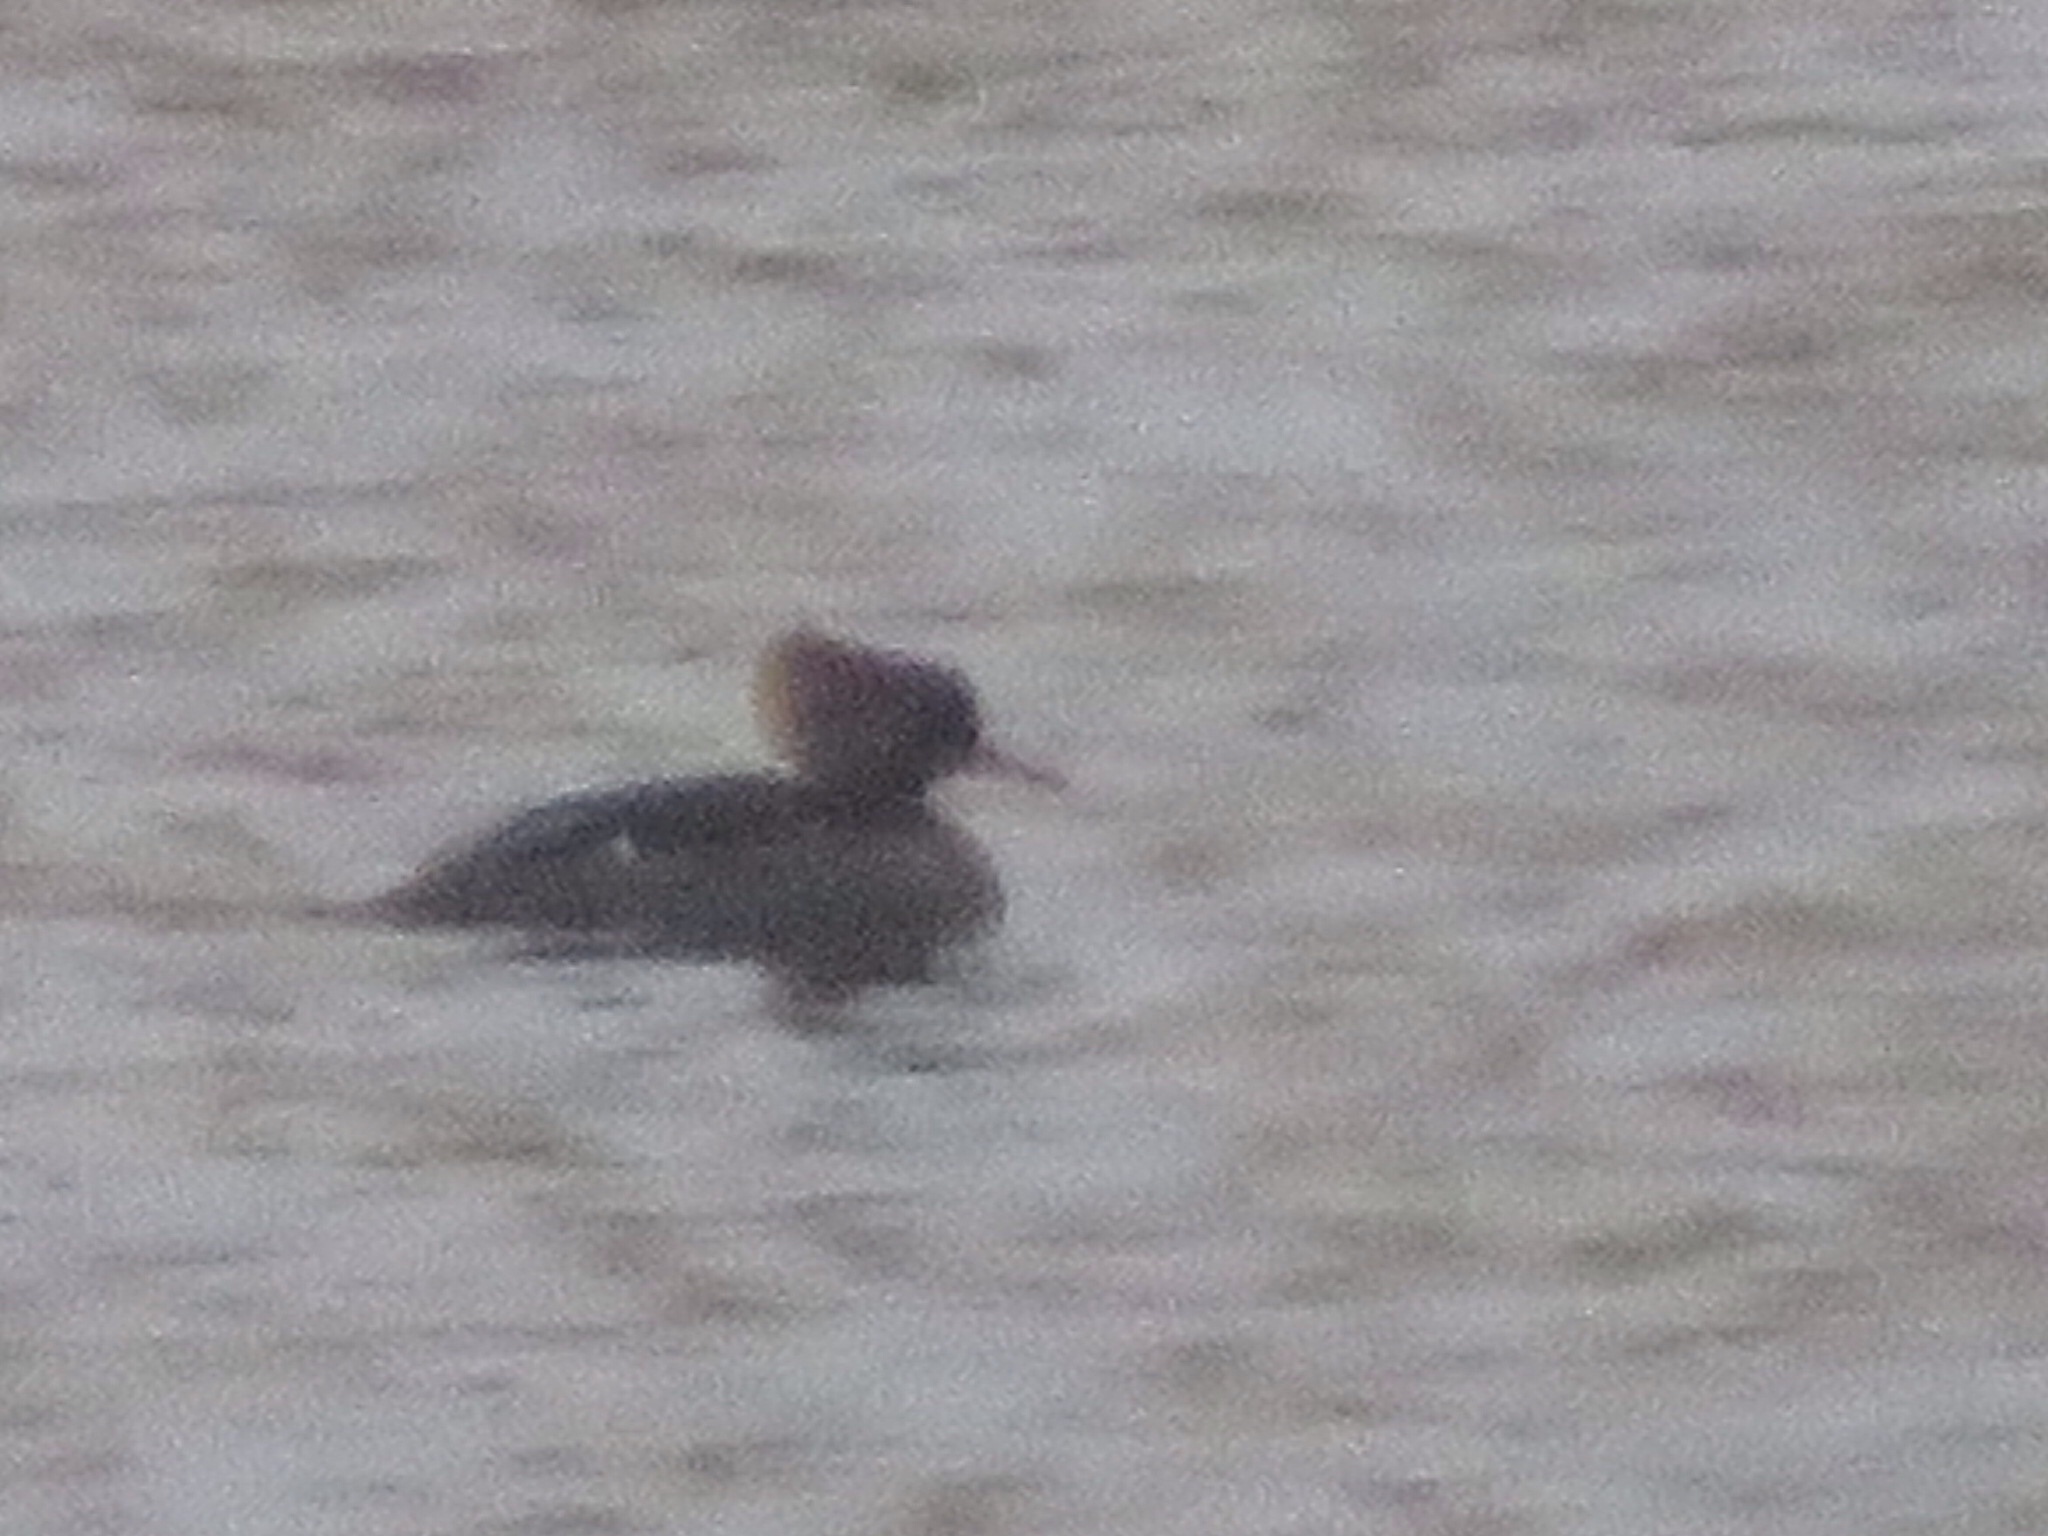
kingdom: Animalia
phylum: Chordata
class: Aves
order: Anseriformes
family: Anatidae
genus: Lophodytes
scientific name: Lophodytes cucullatus
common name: Hooded merganser
